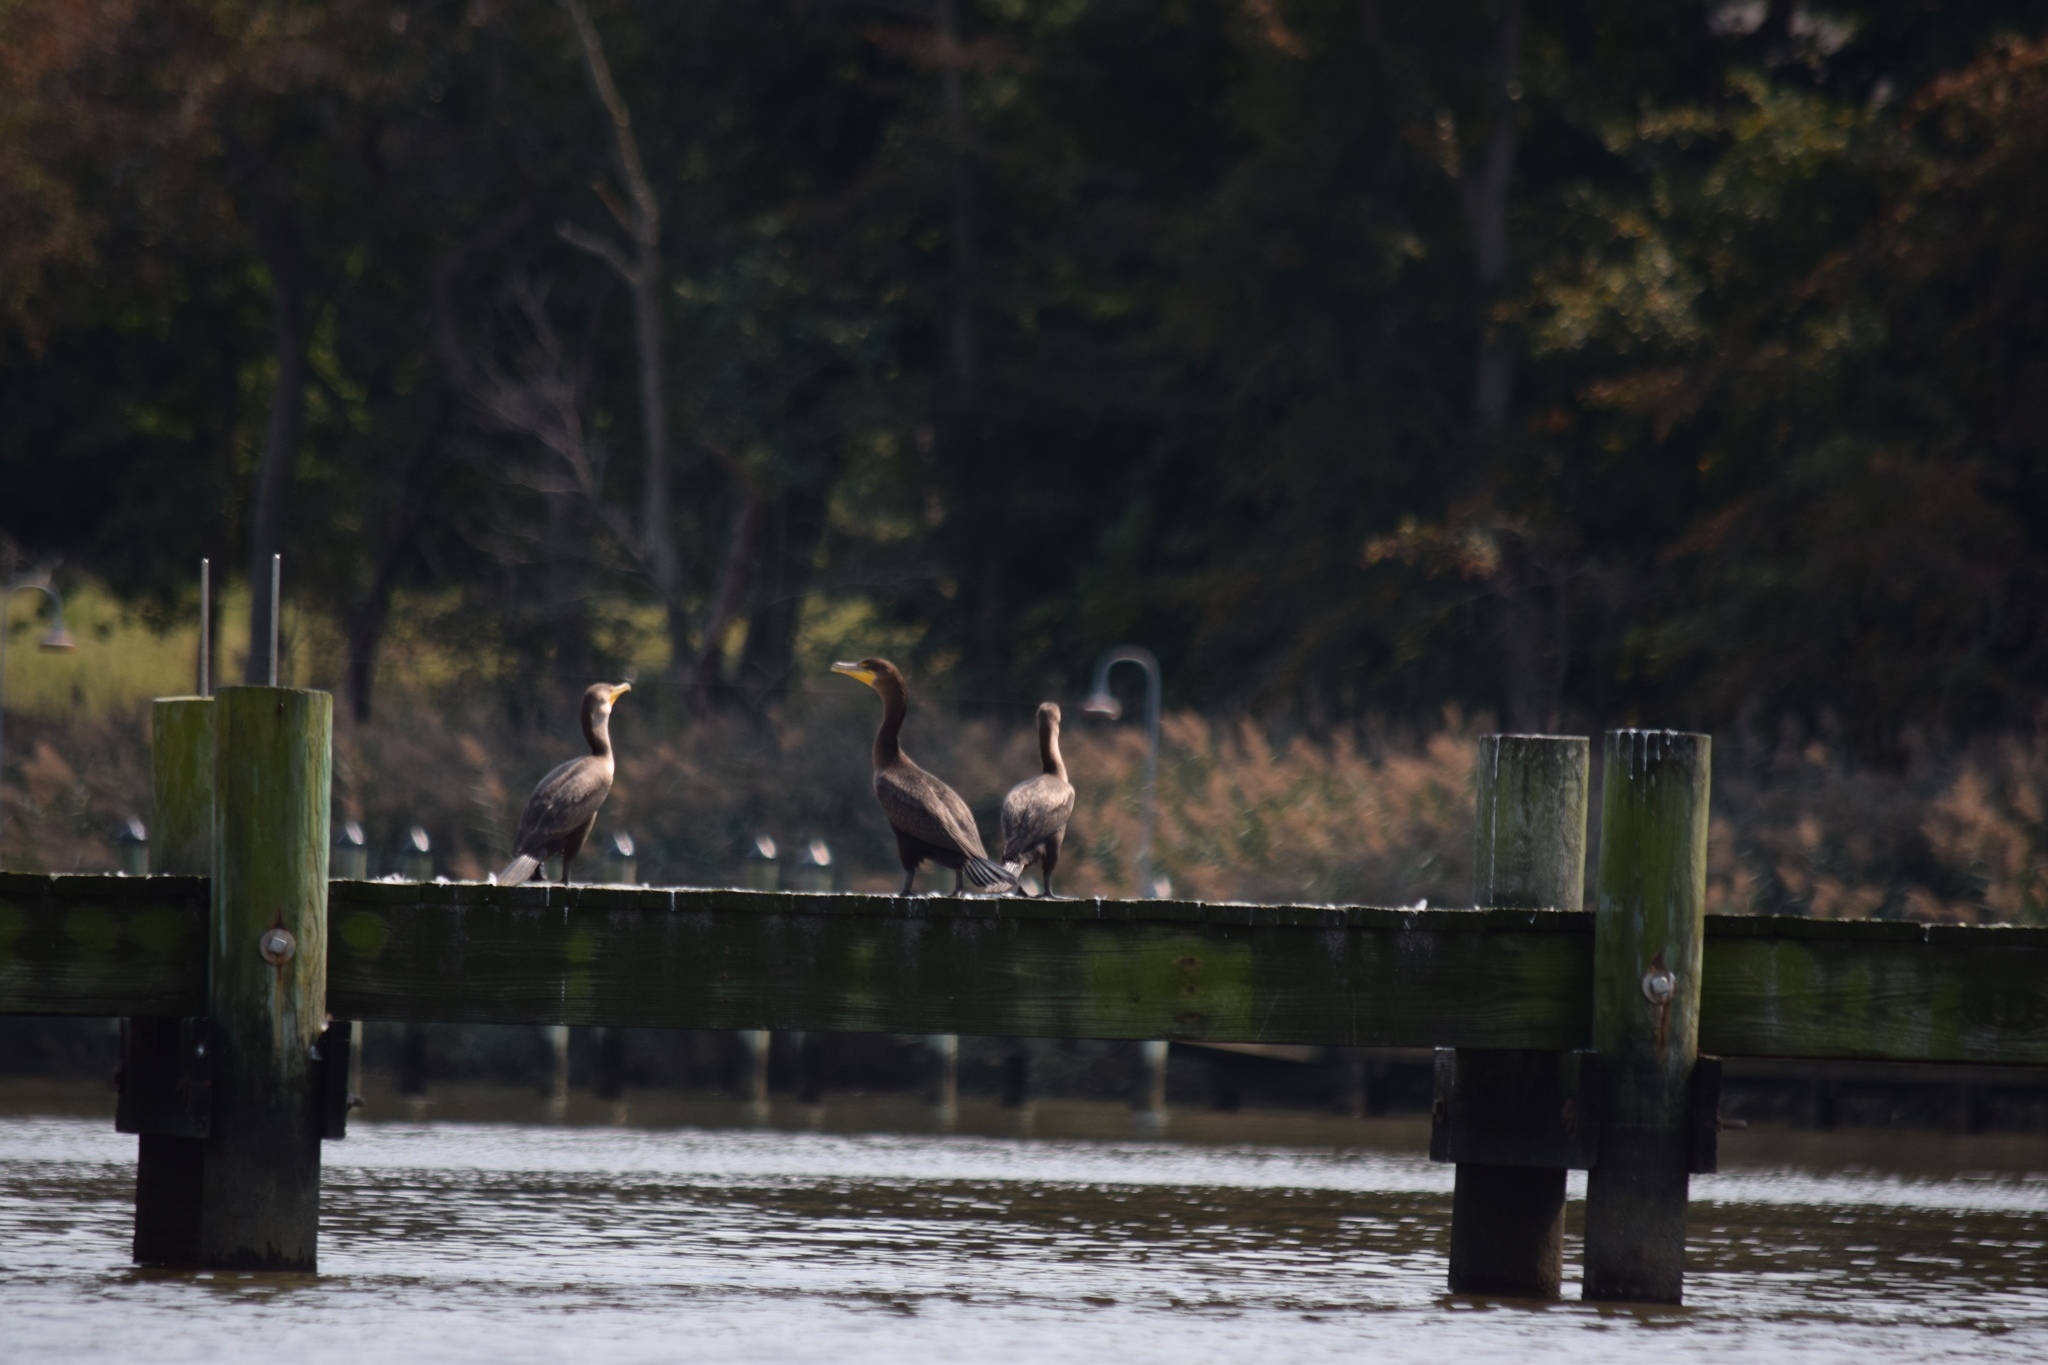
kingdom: Animalia
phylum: Chordata
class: Aves
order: Suliformes
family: Phalacrocoracidae
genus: Phalacrocorax
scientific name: Phalacrocorax auritus
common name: Double-crested cormorant
